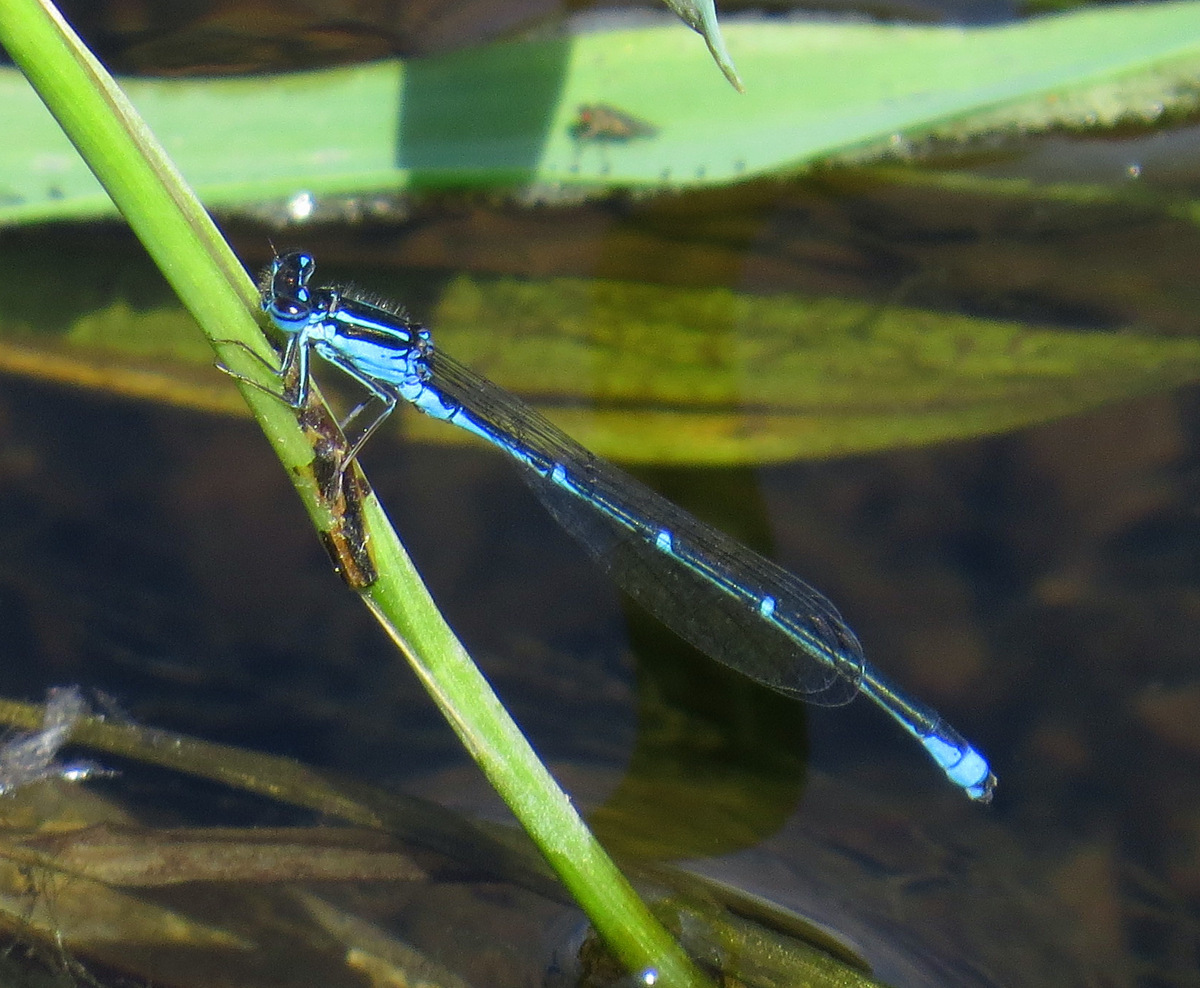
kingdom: Animalia
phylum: Arthropoda
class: Insecta
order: Odonata
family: Coenagrionidae
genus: Enallagma
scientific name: Enallagma exsulans
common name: Stream bluet
